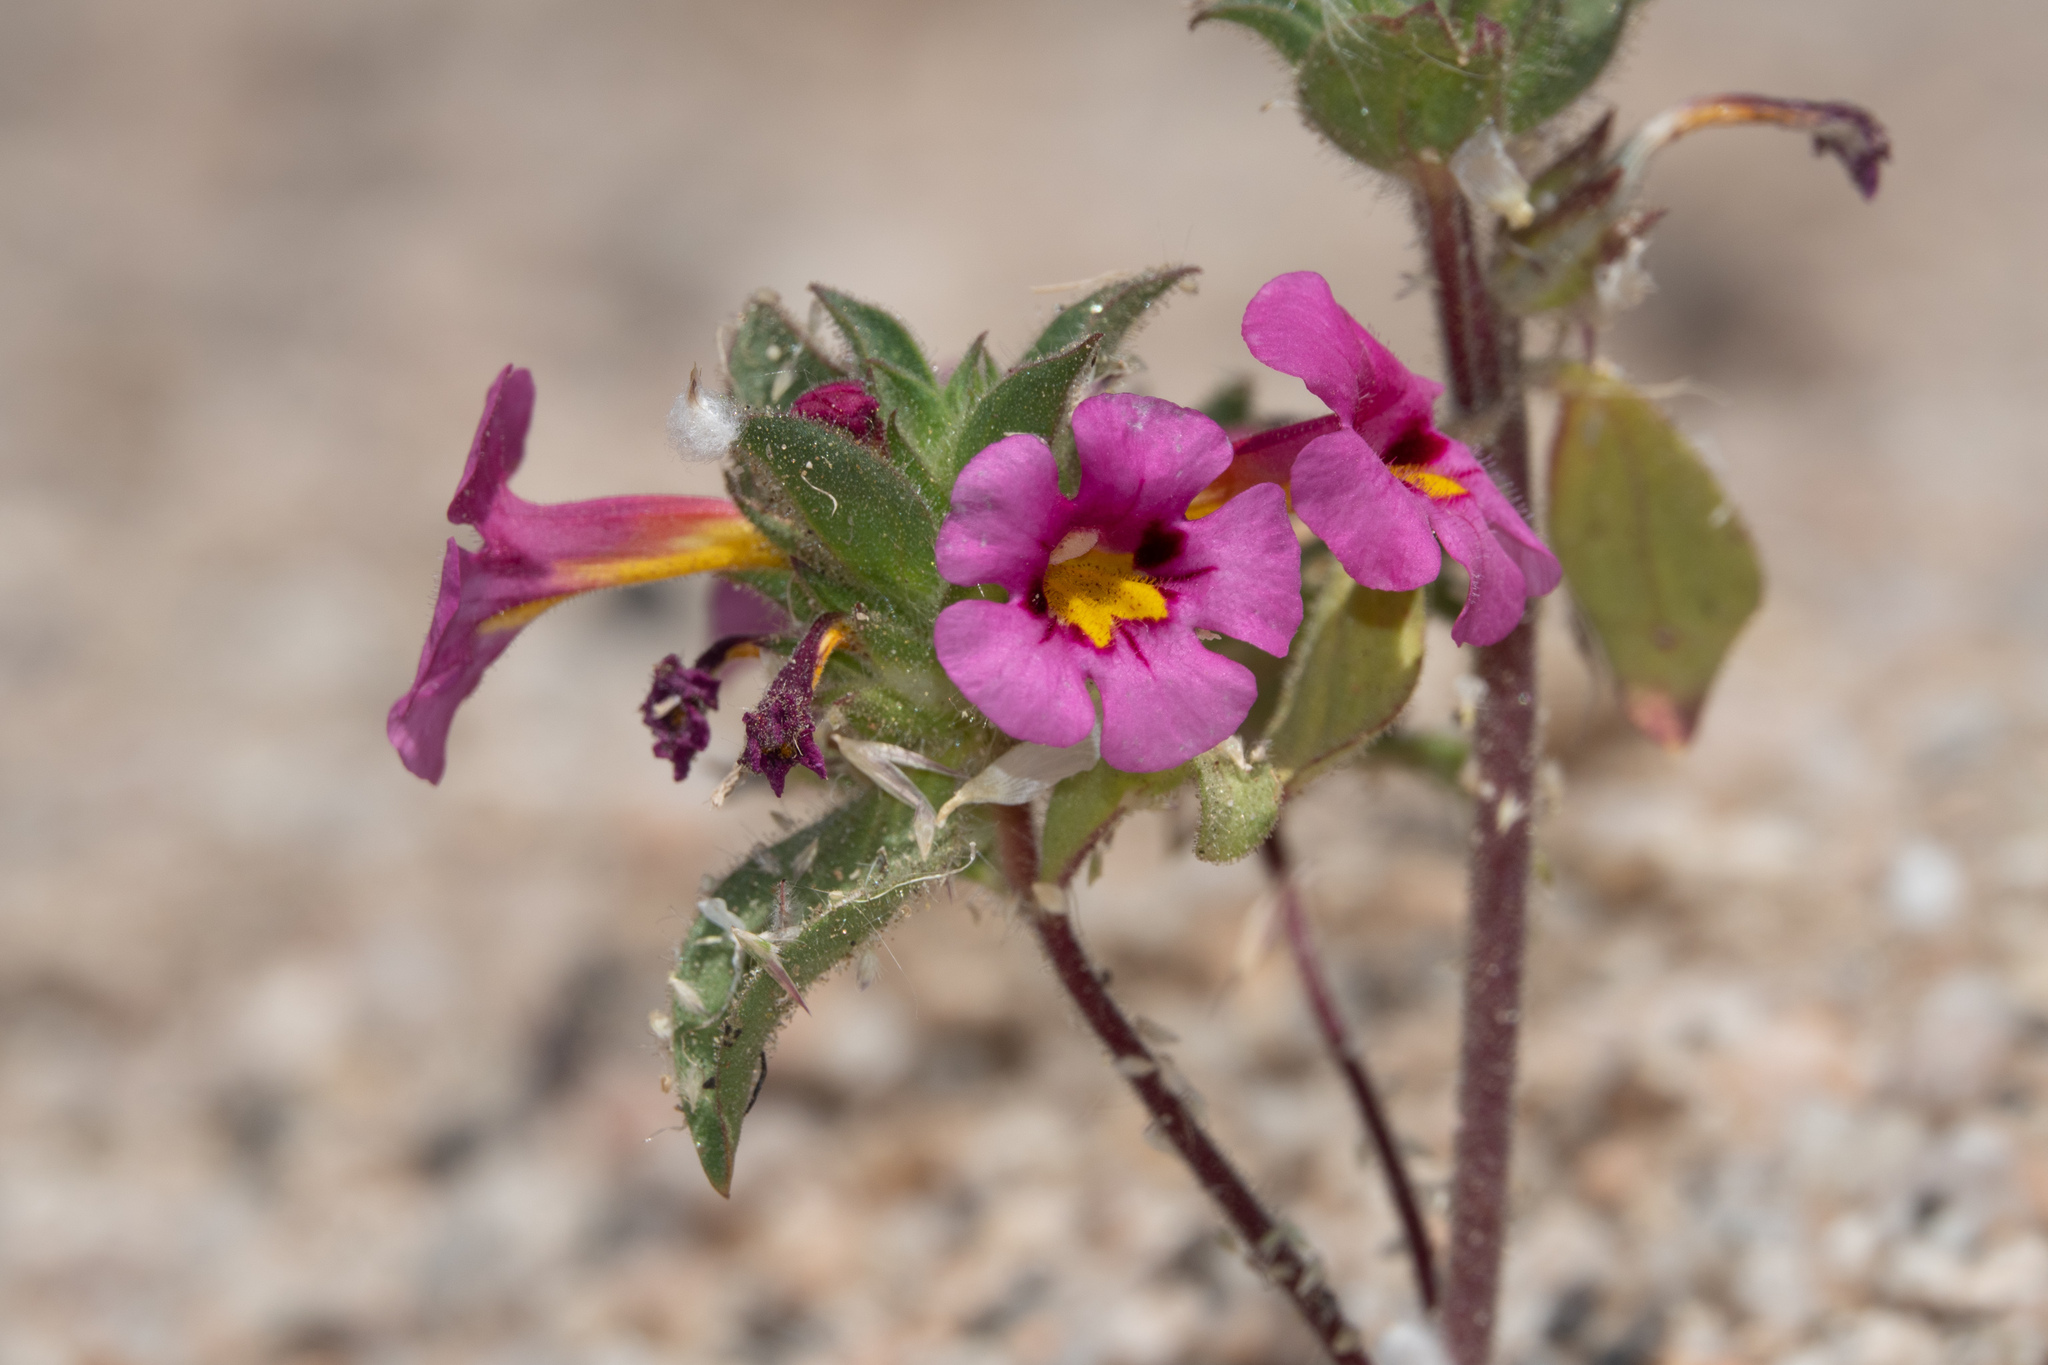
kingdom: Plantae
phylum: Tracheophyta
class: Magnoliopsida
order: Lamiales
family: Phrymaceae
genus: Diplacus
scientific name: Diplacus bigelovii
